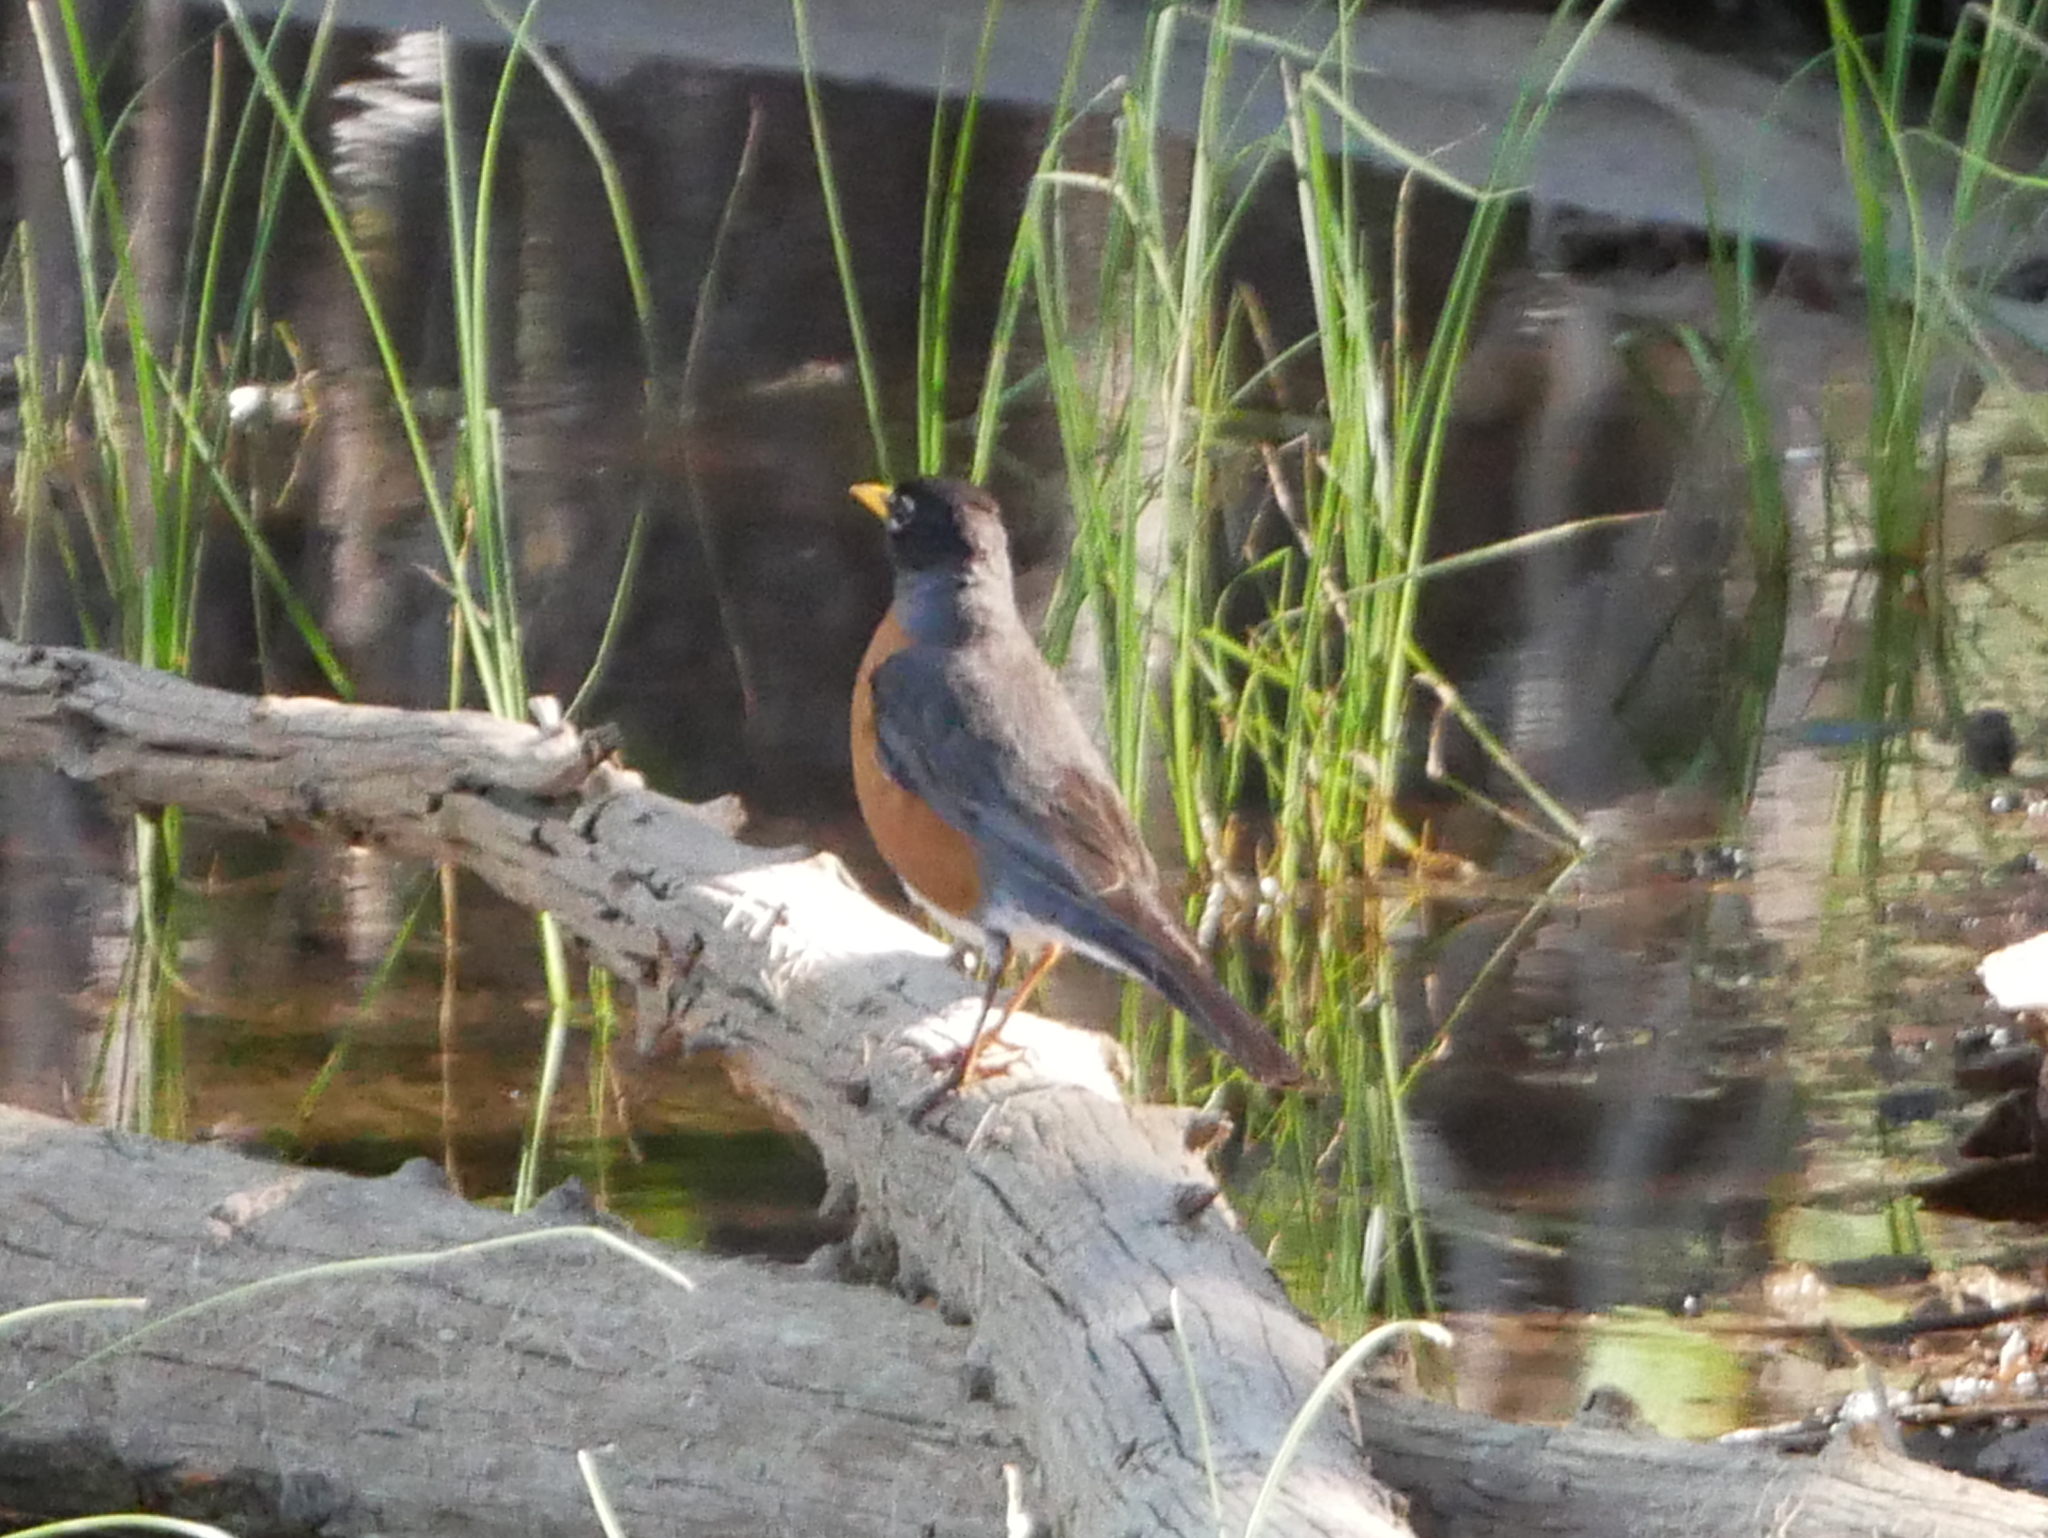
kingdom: Animalia
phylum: Chordata
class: Aves
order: Passeriformes
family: Turdidae
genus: Turdus
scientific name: Turdus migratorius
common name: American robin
